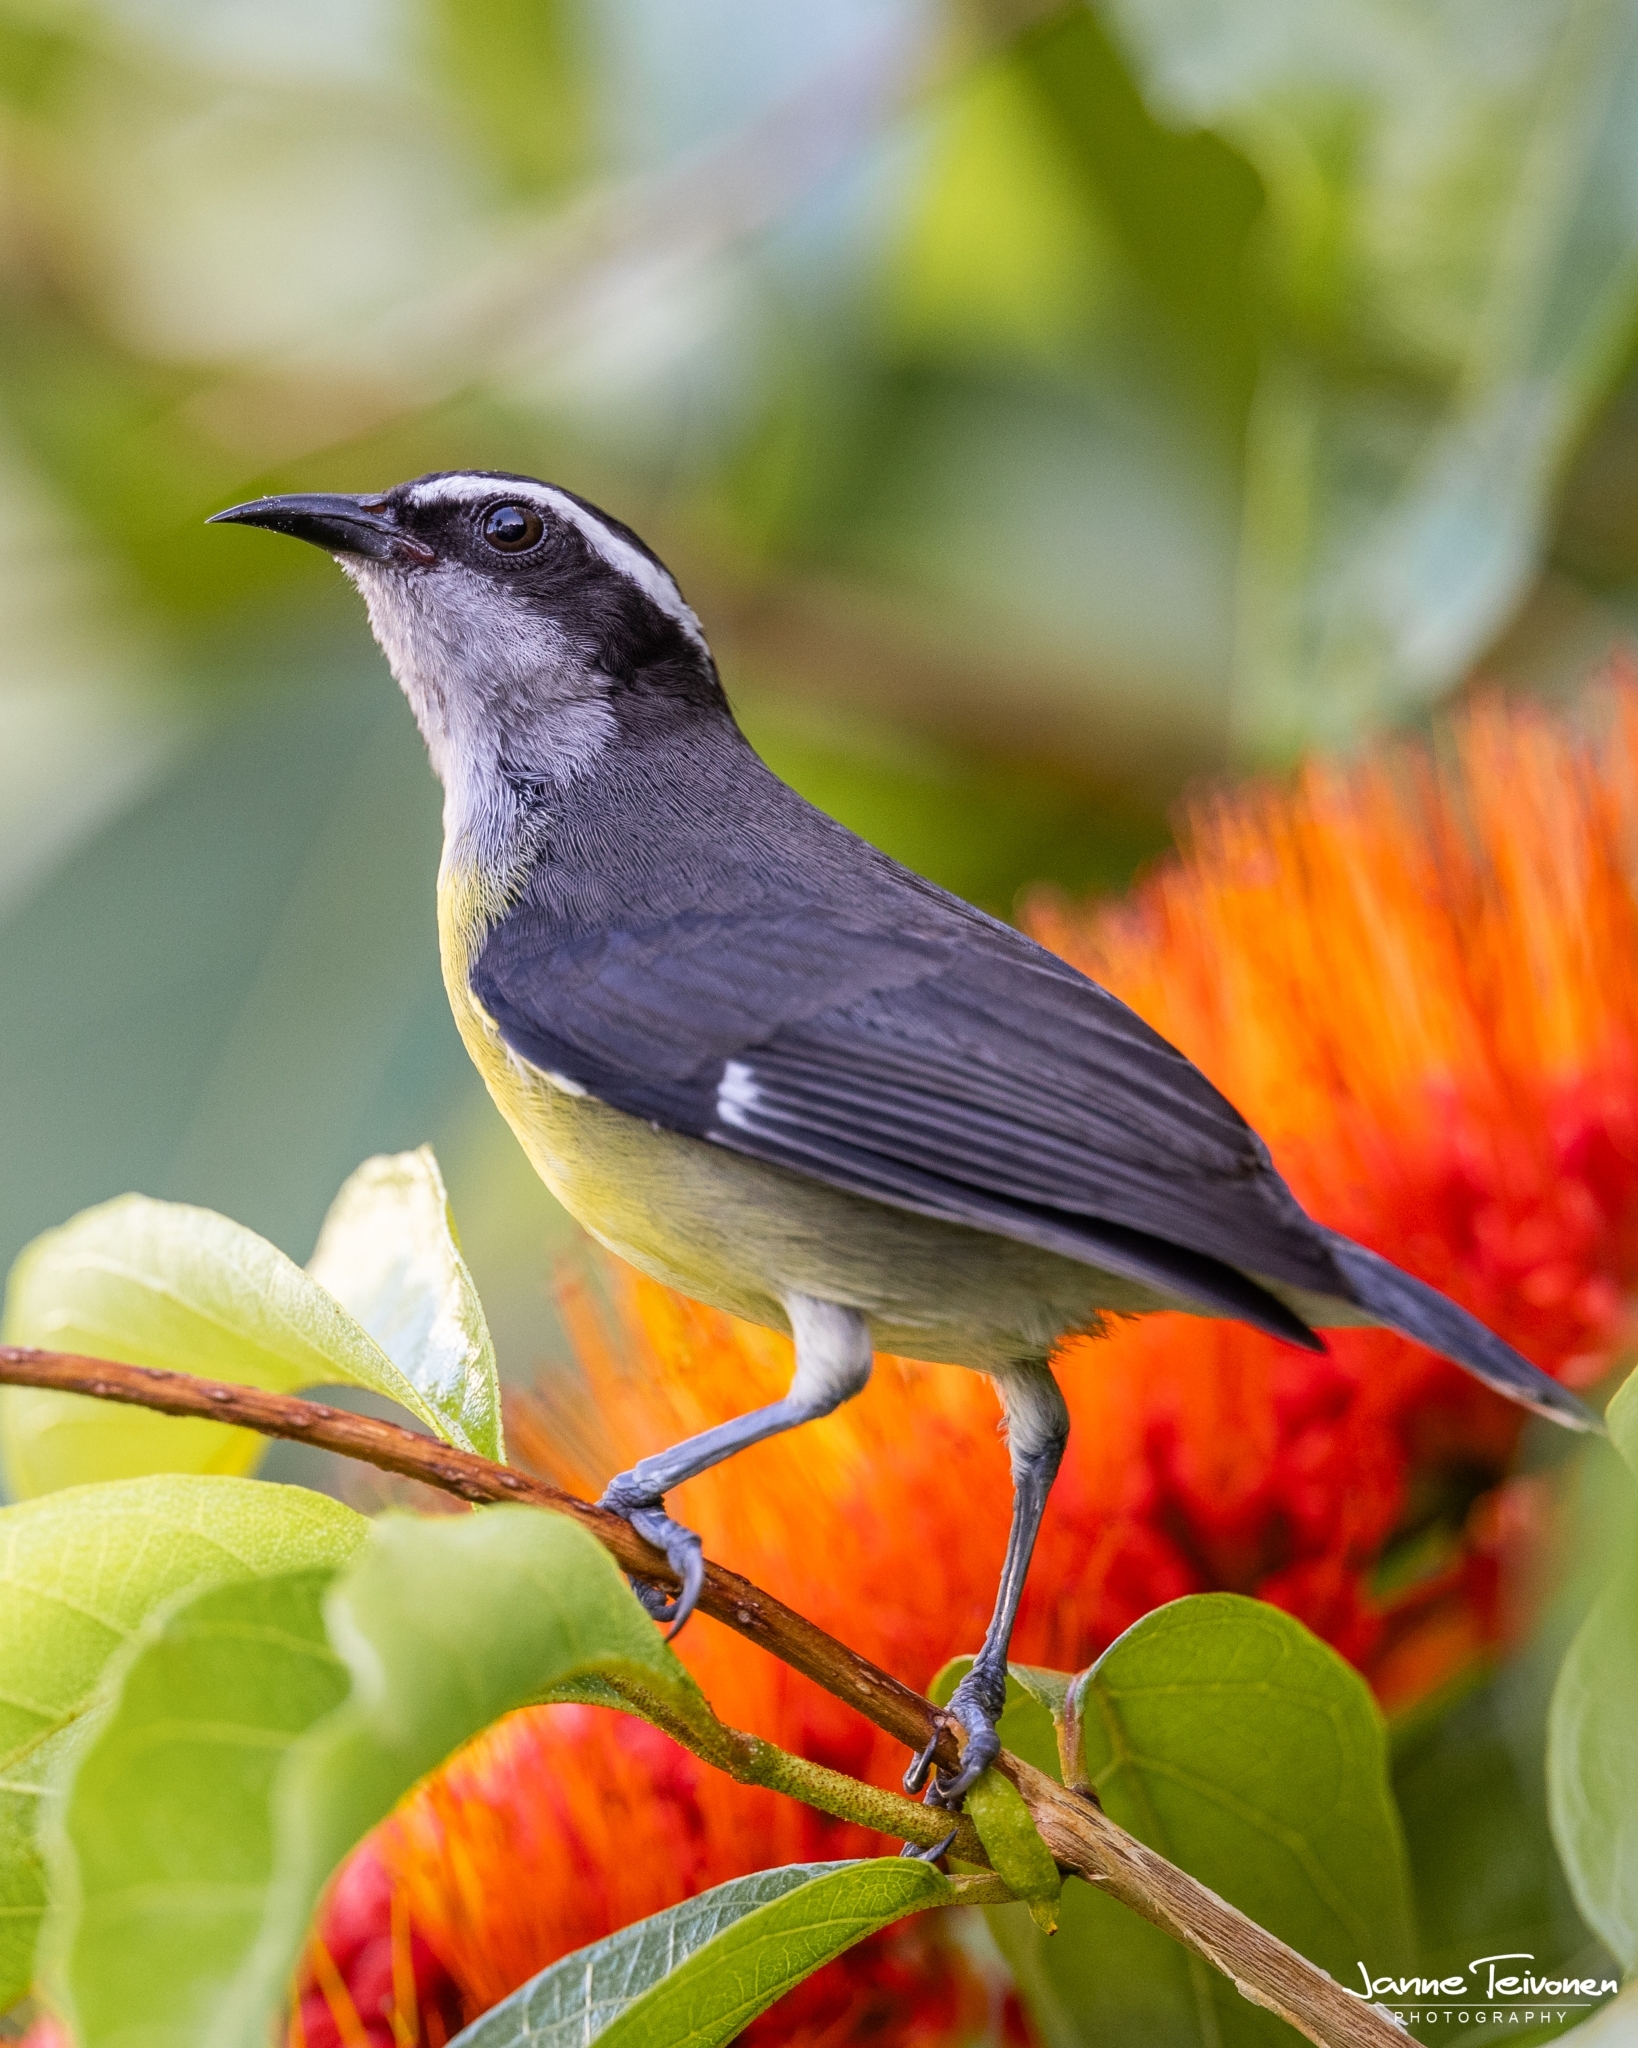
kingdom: Animalia
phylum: Chordata
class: Aves
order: Passeriformes
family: Thraupidae
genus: Coereba
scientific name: Coereba flaveola
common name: Bananaquit
